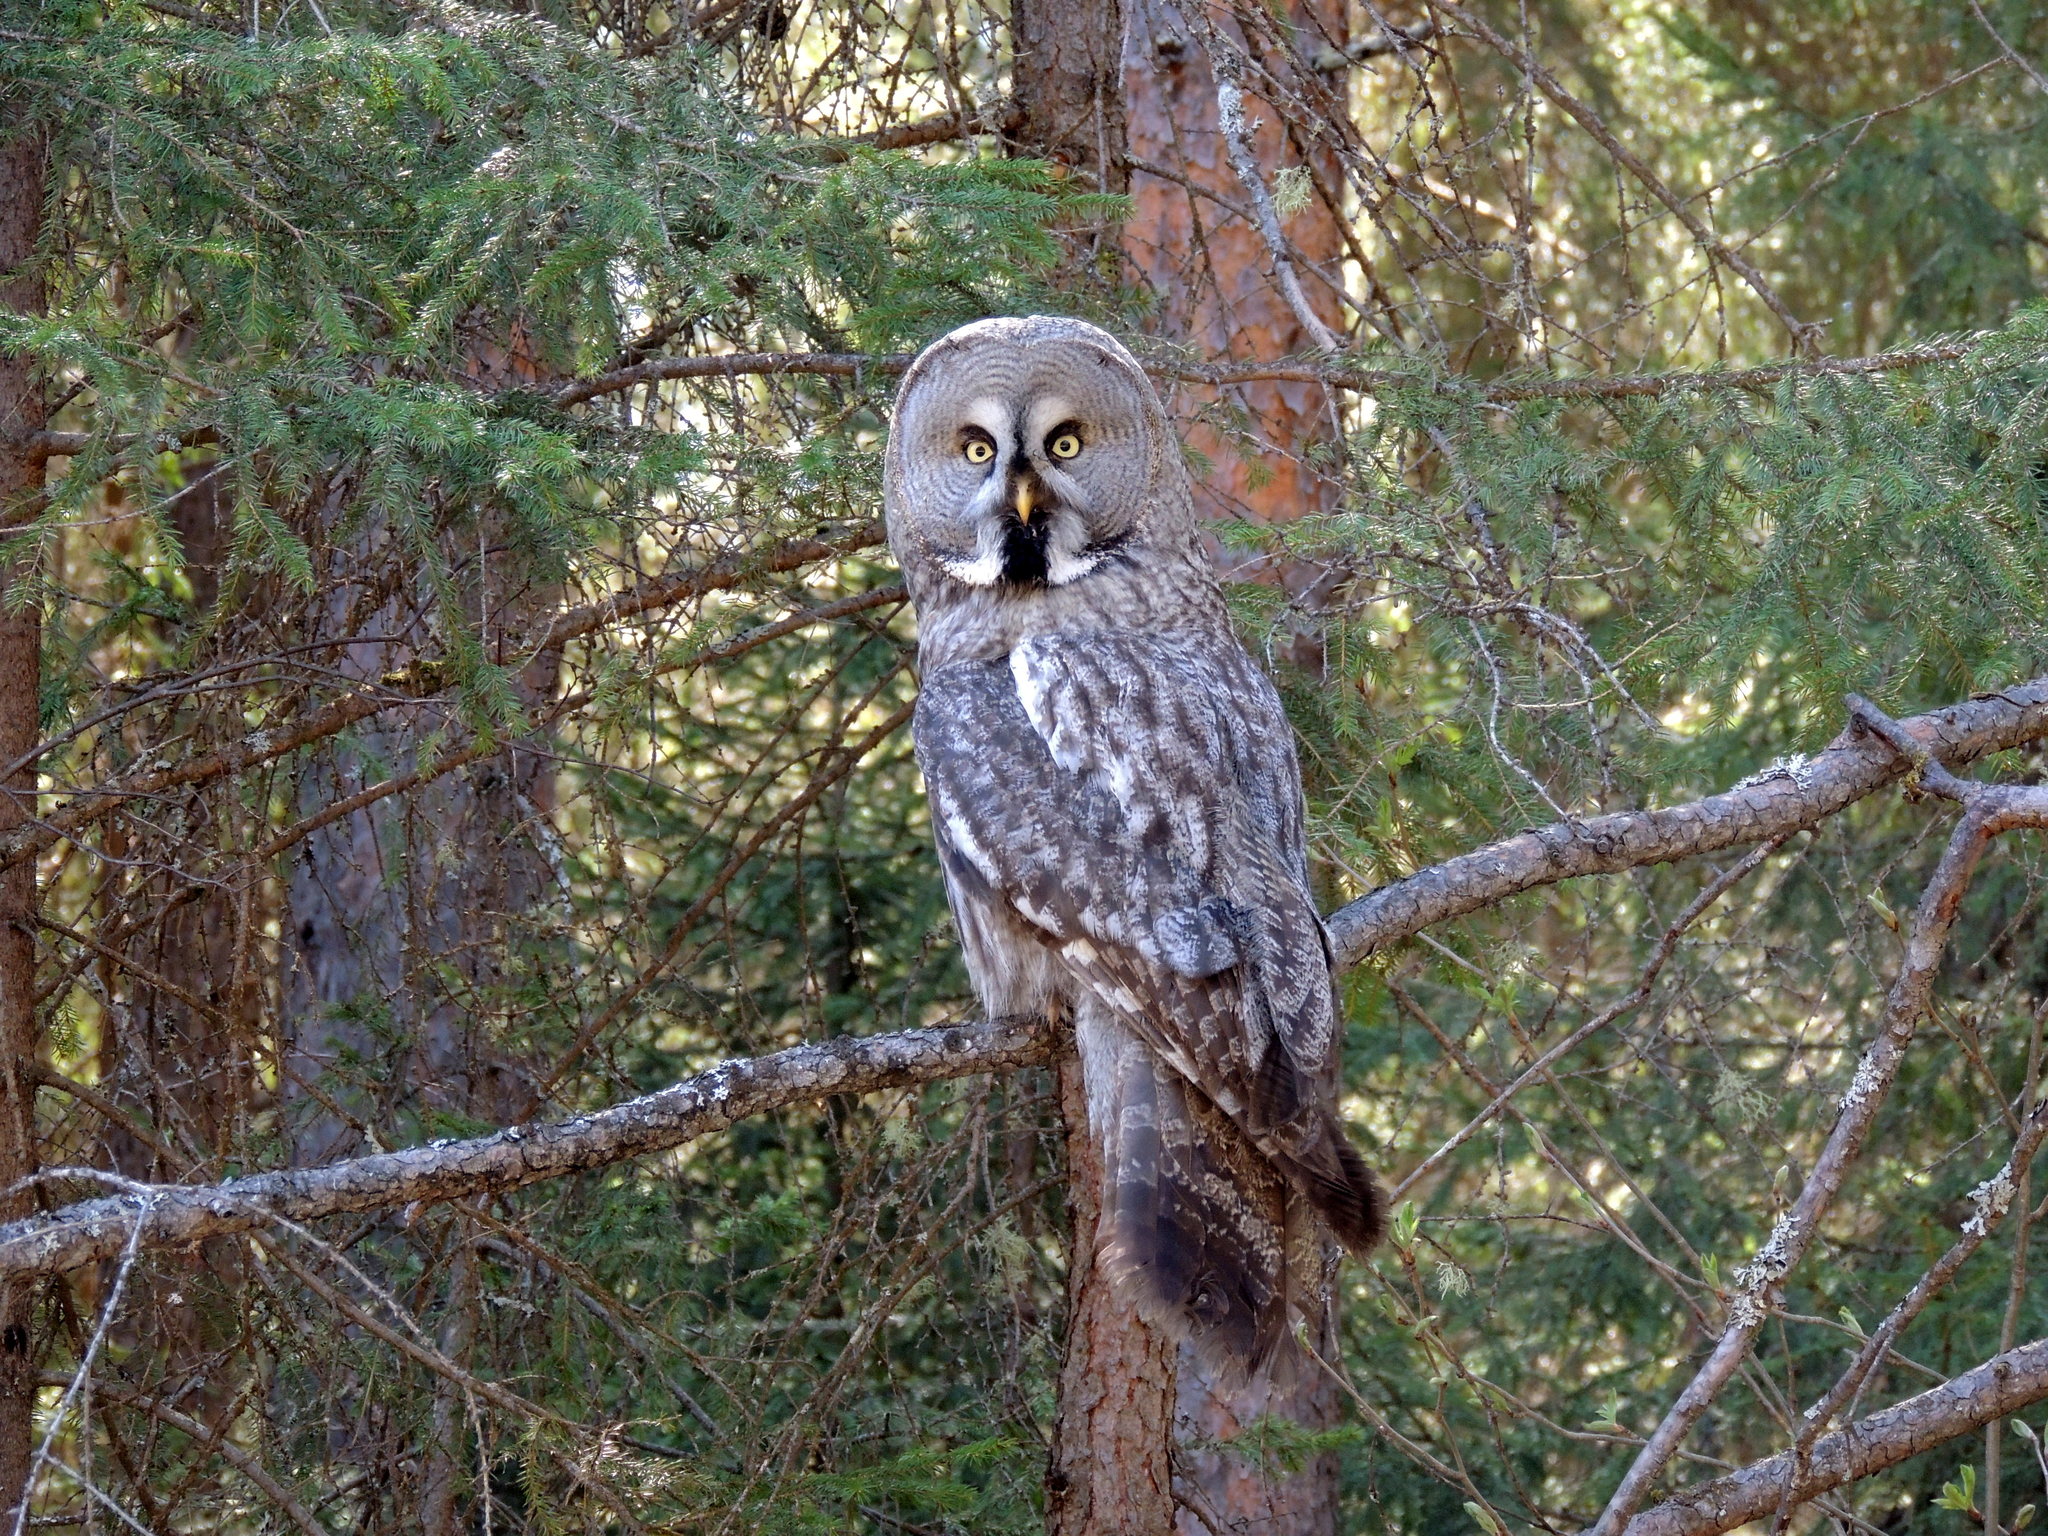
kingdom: Animalia
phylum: Chordata
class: Aves
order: Strigiformes
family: Strigidae
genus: Strix
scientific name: Strix nebulosa
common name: Great grey owl
